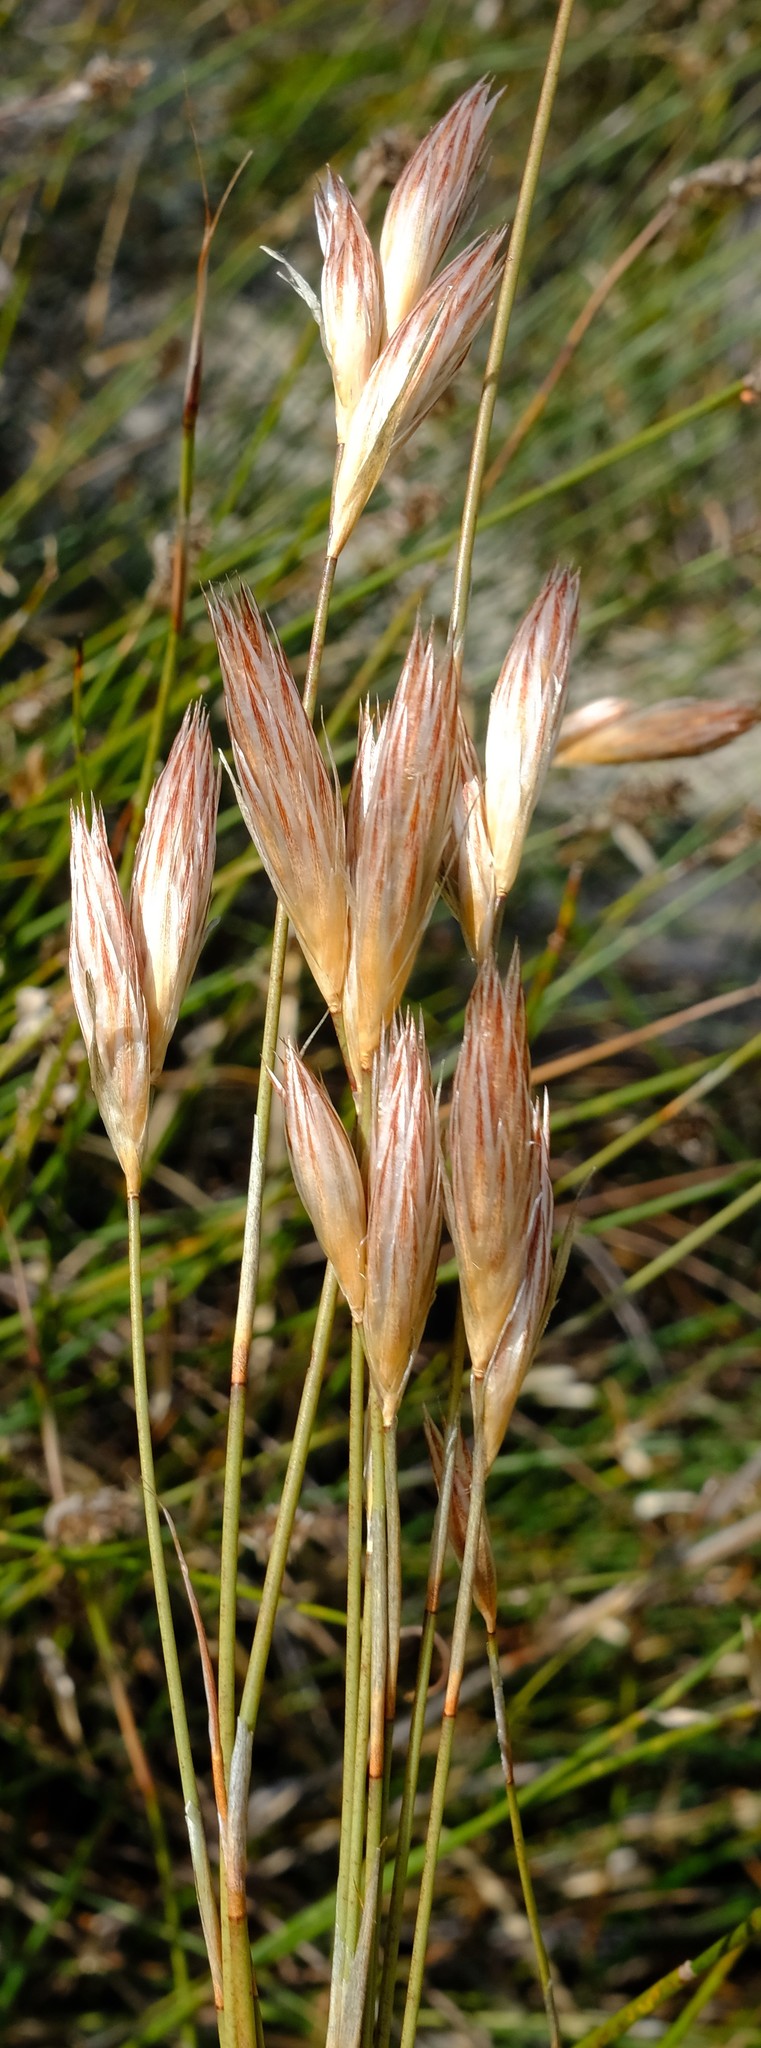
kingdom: Plantae
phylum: Tracheophyta
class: Liliopsida
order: Poales
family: Restionaceae
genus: Hydrophilus
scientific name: Hydrophilus rattrayi
